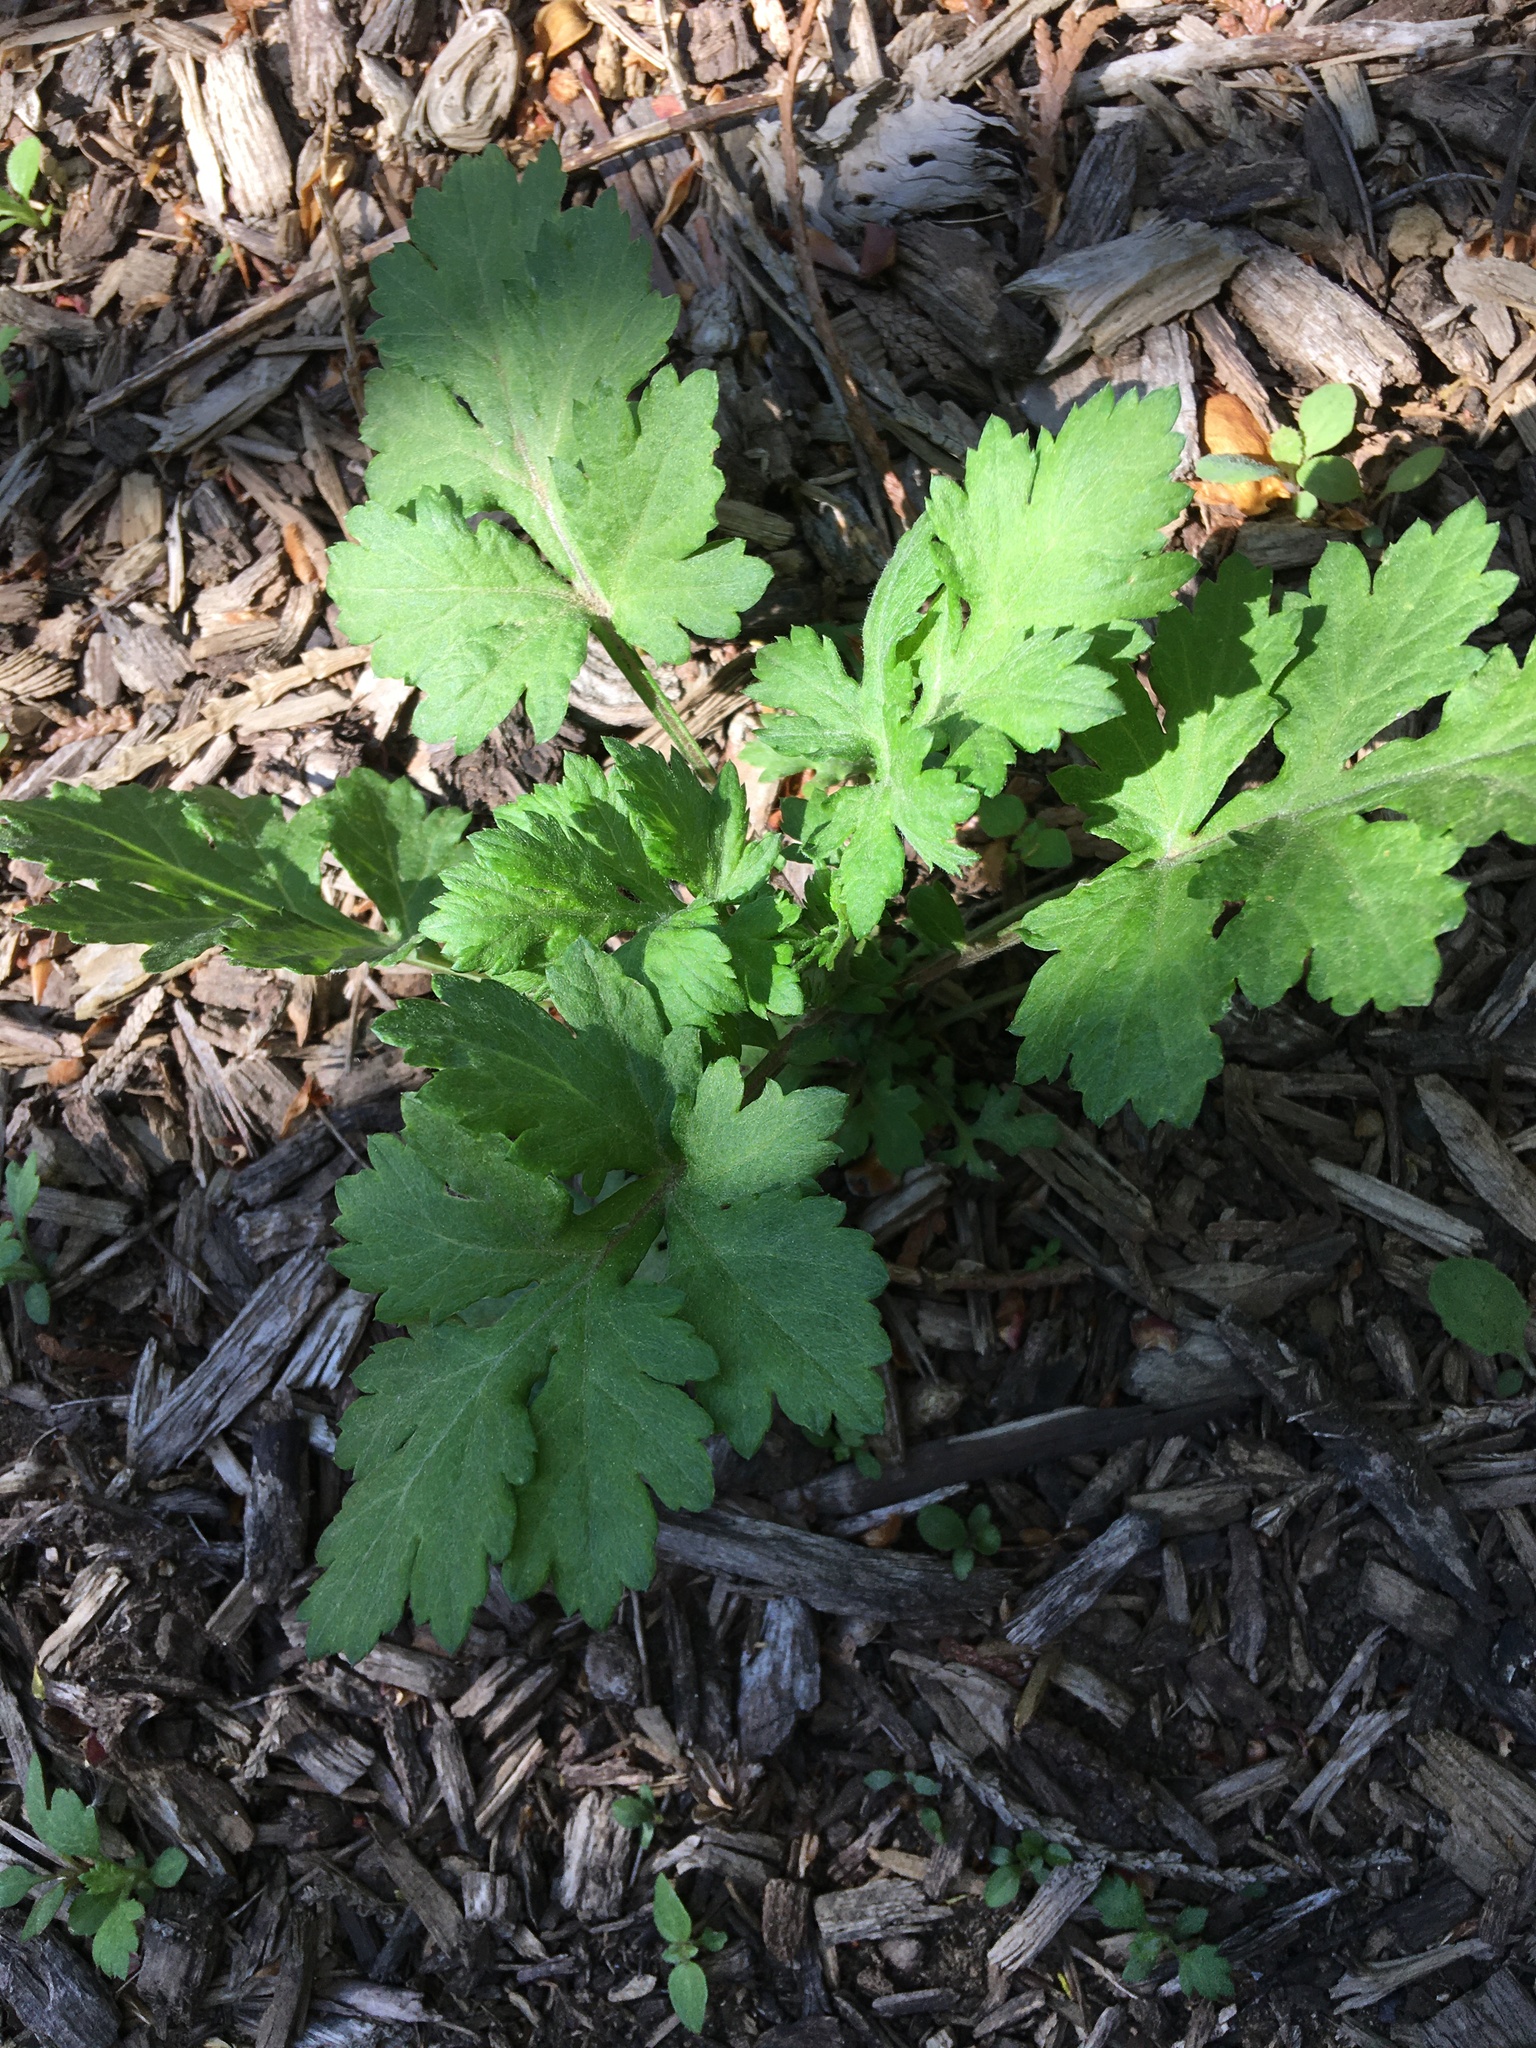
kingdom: Plantae
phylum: Tracheophyta
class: Magnoliopsida
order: Asterales
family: Asteraceae
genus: Artemisia
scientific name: Artemisia vulgaris
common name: Mugwort
